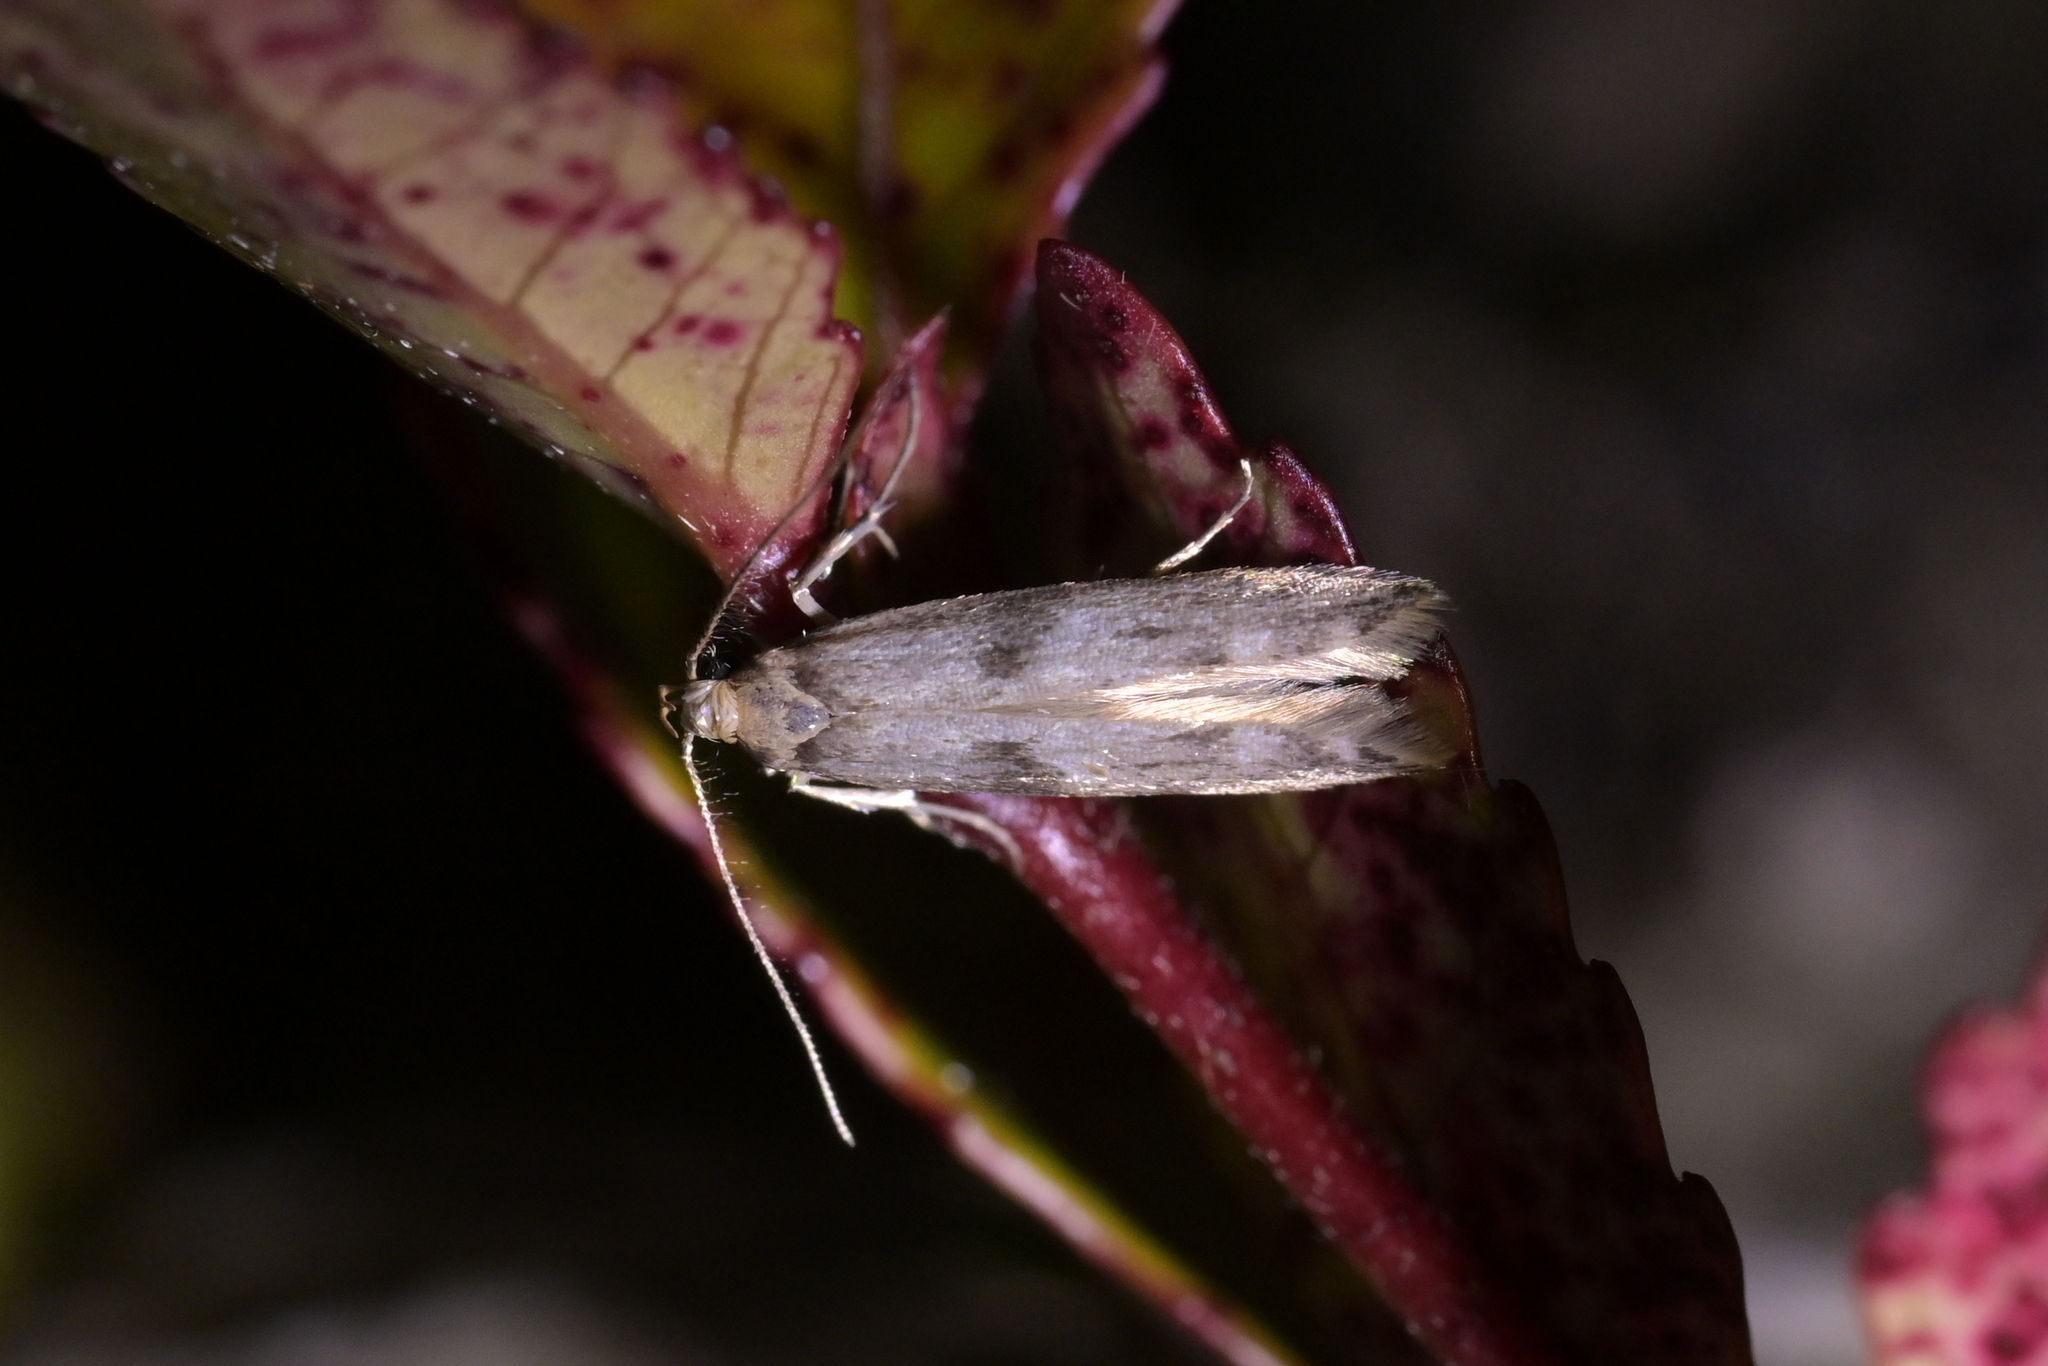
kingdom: Animalia
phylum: Arthropoda
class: Insecta
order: Lepidoptera
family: Gelechiidae
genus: Thiotricha
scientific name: Thiotricha tetraphala
